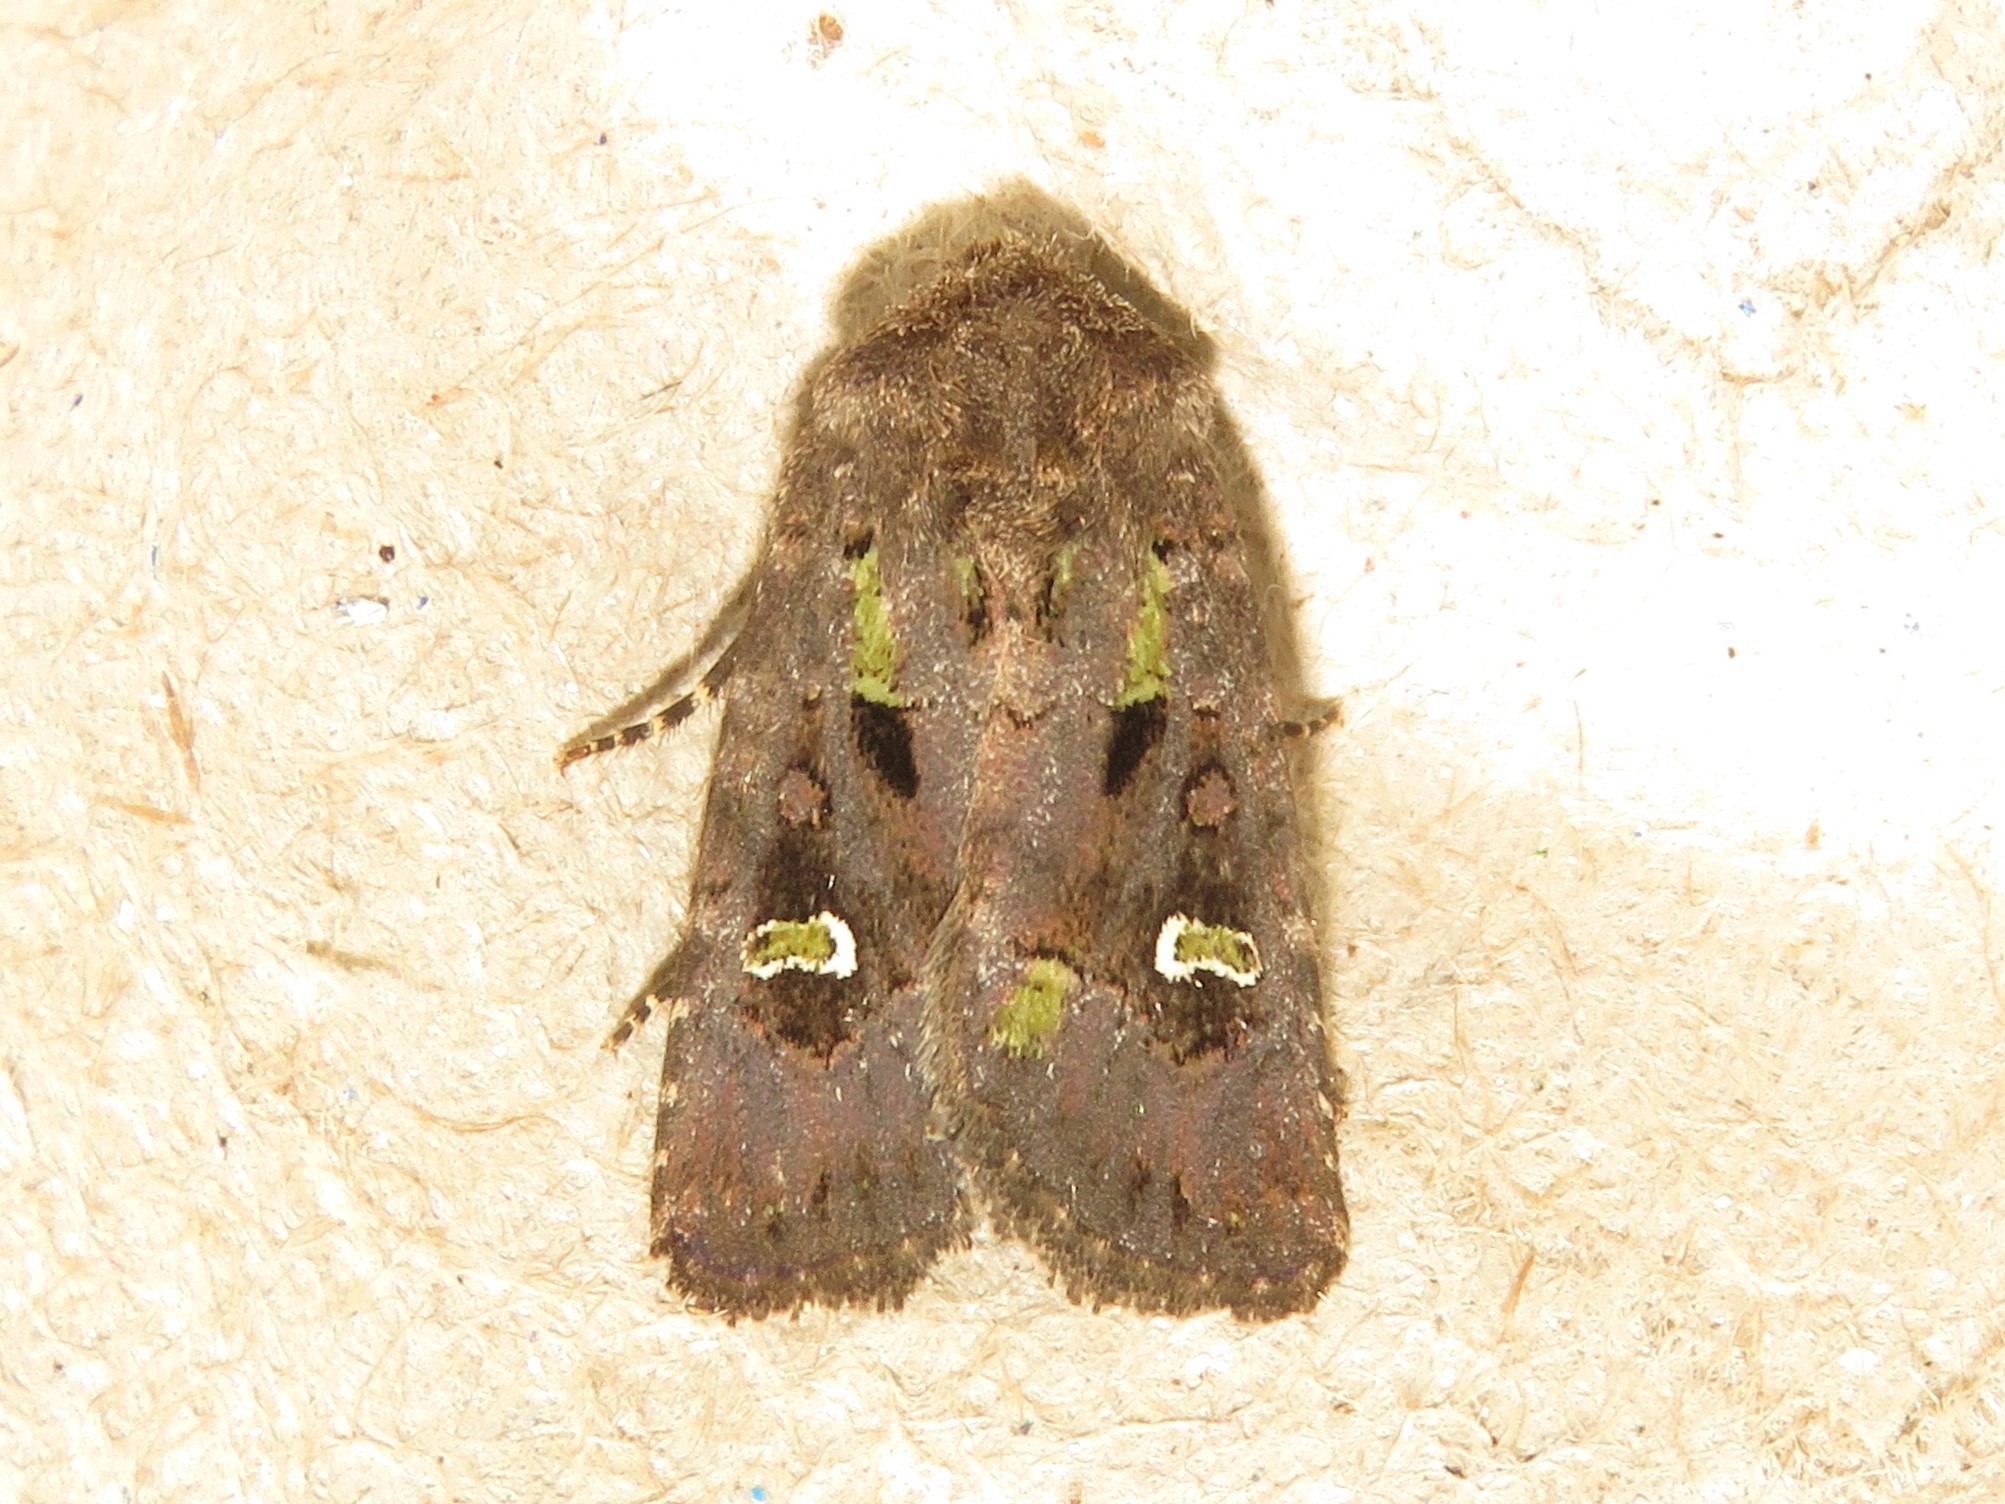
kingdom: Animalia
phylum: Arthropoda
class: Insecta
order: Lepidoptera
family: Noctuidae
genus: Lacinipolia
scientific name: Lacinipolia renigera
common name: Kidney-spotted minor
